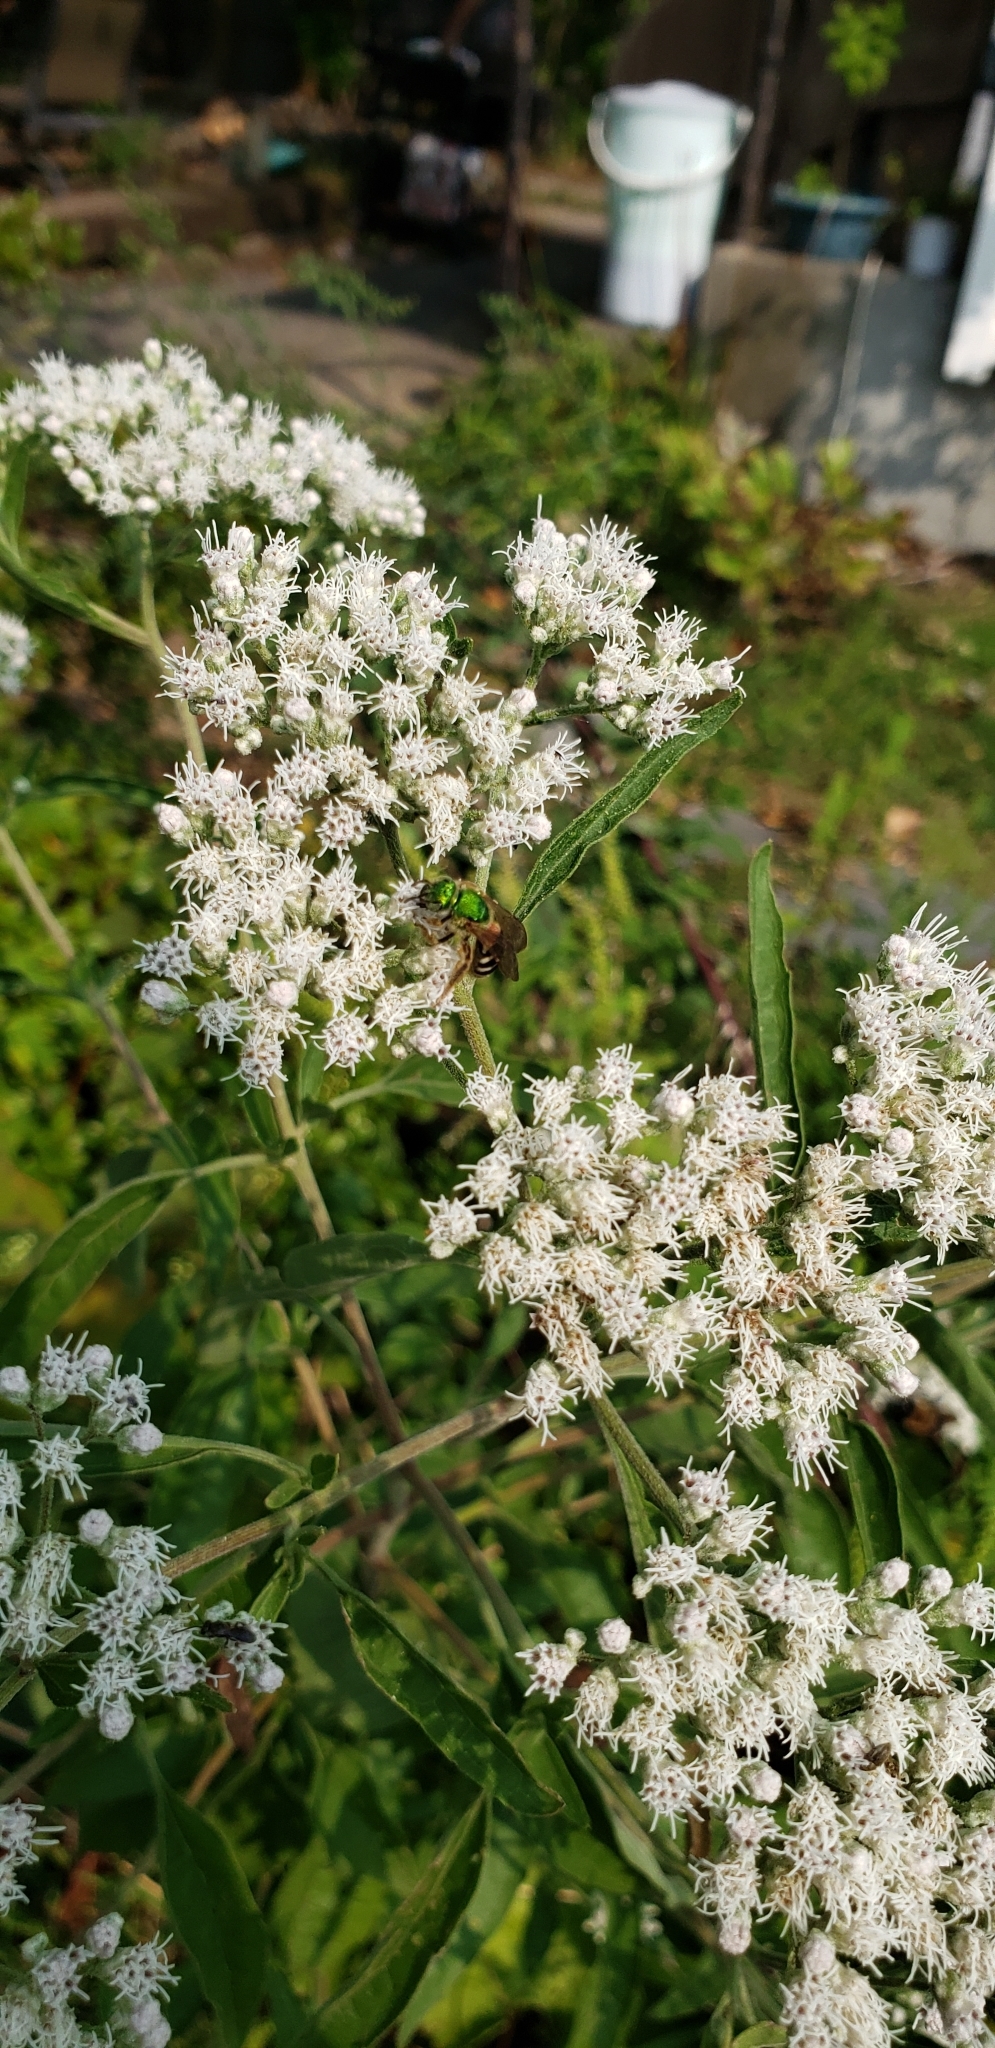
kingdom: Plantae
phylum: Tracheophyta
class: Magnoliopsida
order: Asterales
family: Asteraceae
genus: Eupatorium
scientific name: Eupatorium serotinum
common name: Late boneset
